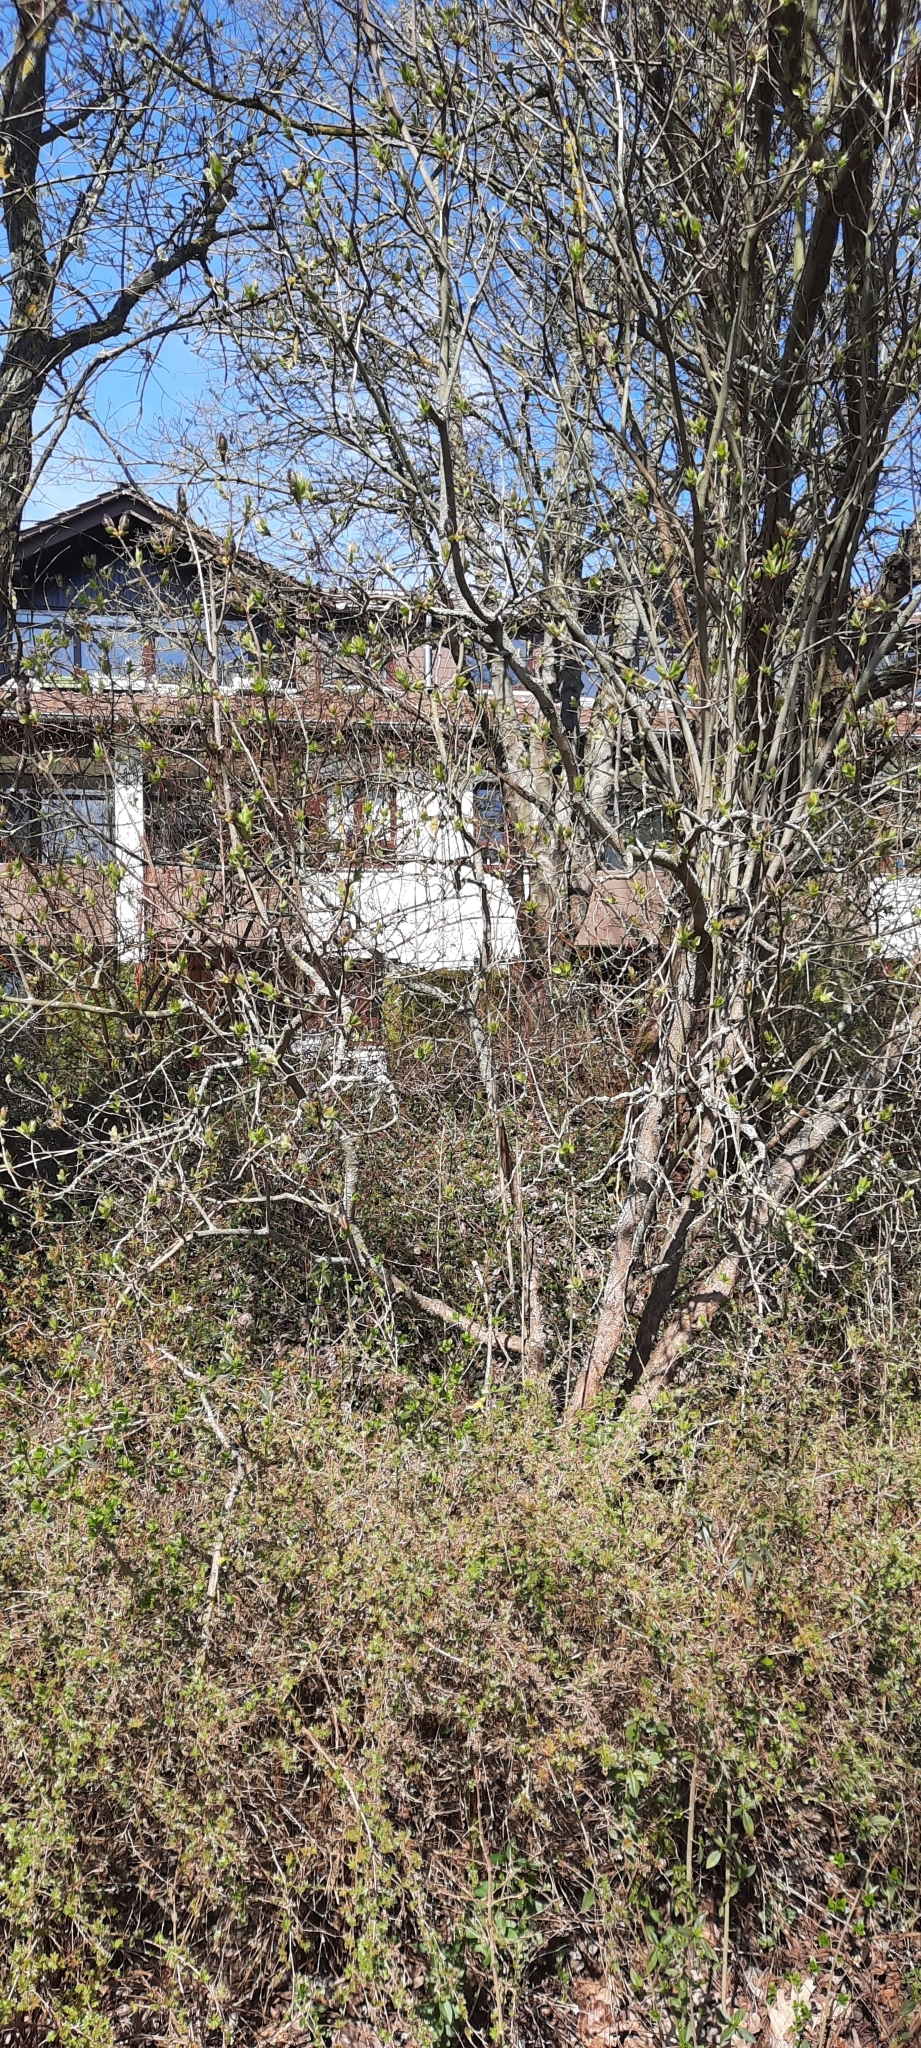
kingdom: Plantae
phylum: Tracheophyta
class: Magnoliopsida
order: Lamiales
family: Oleaceae
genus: Syringa
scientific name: Syringa vulgaris
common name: Common lilac
